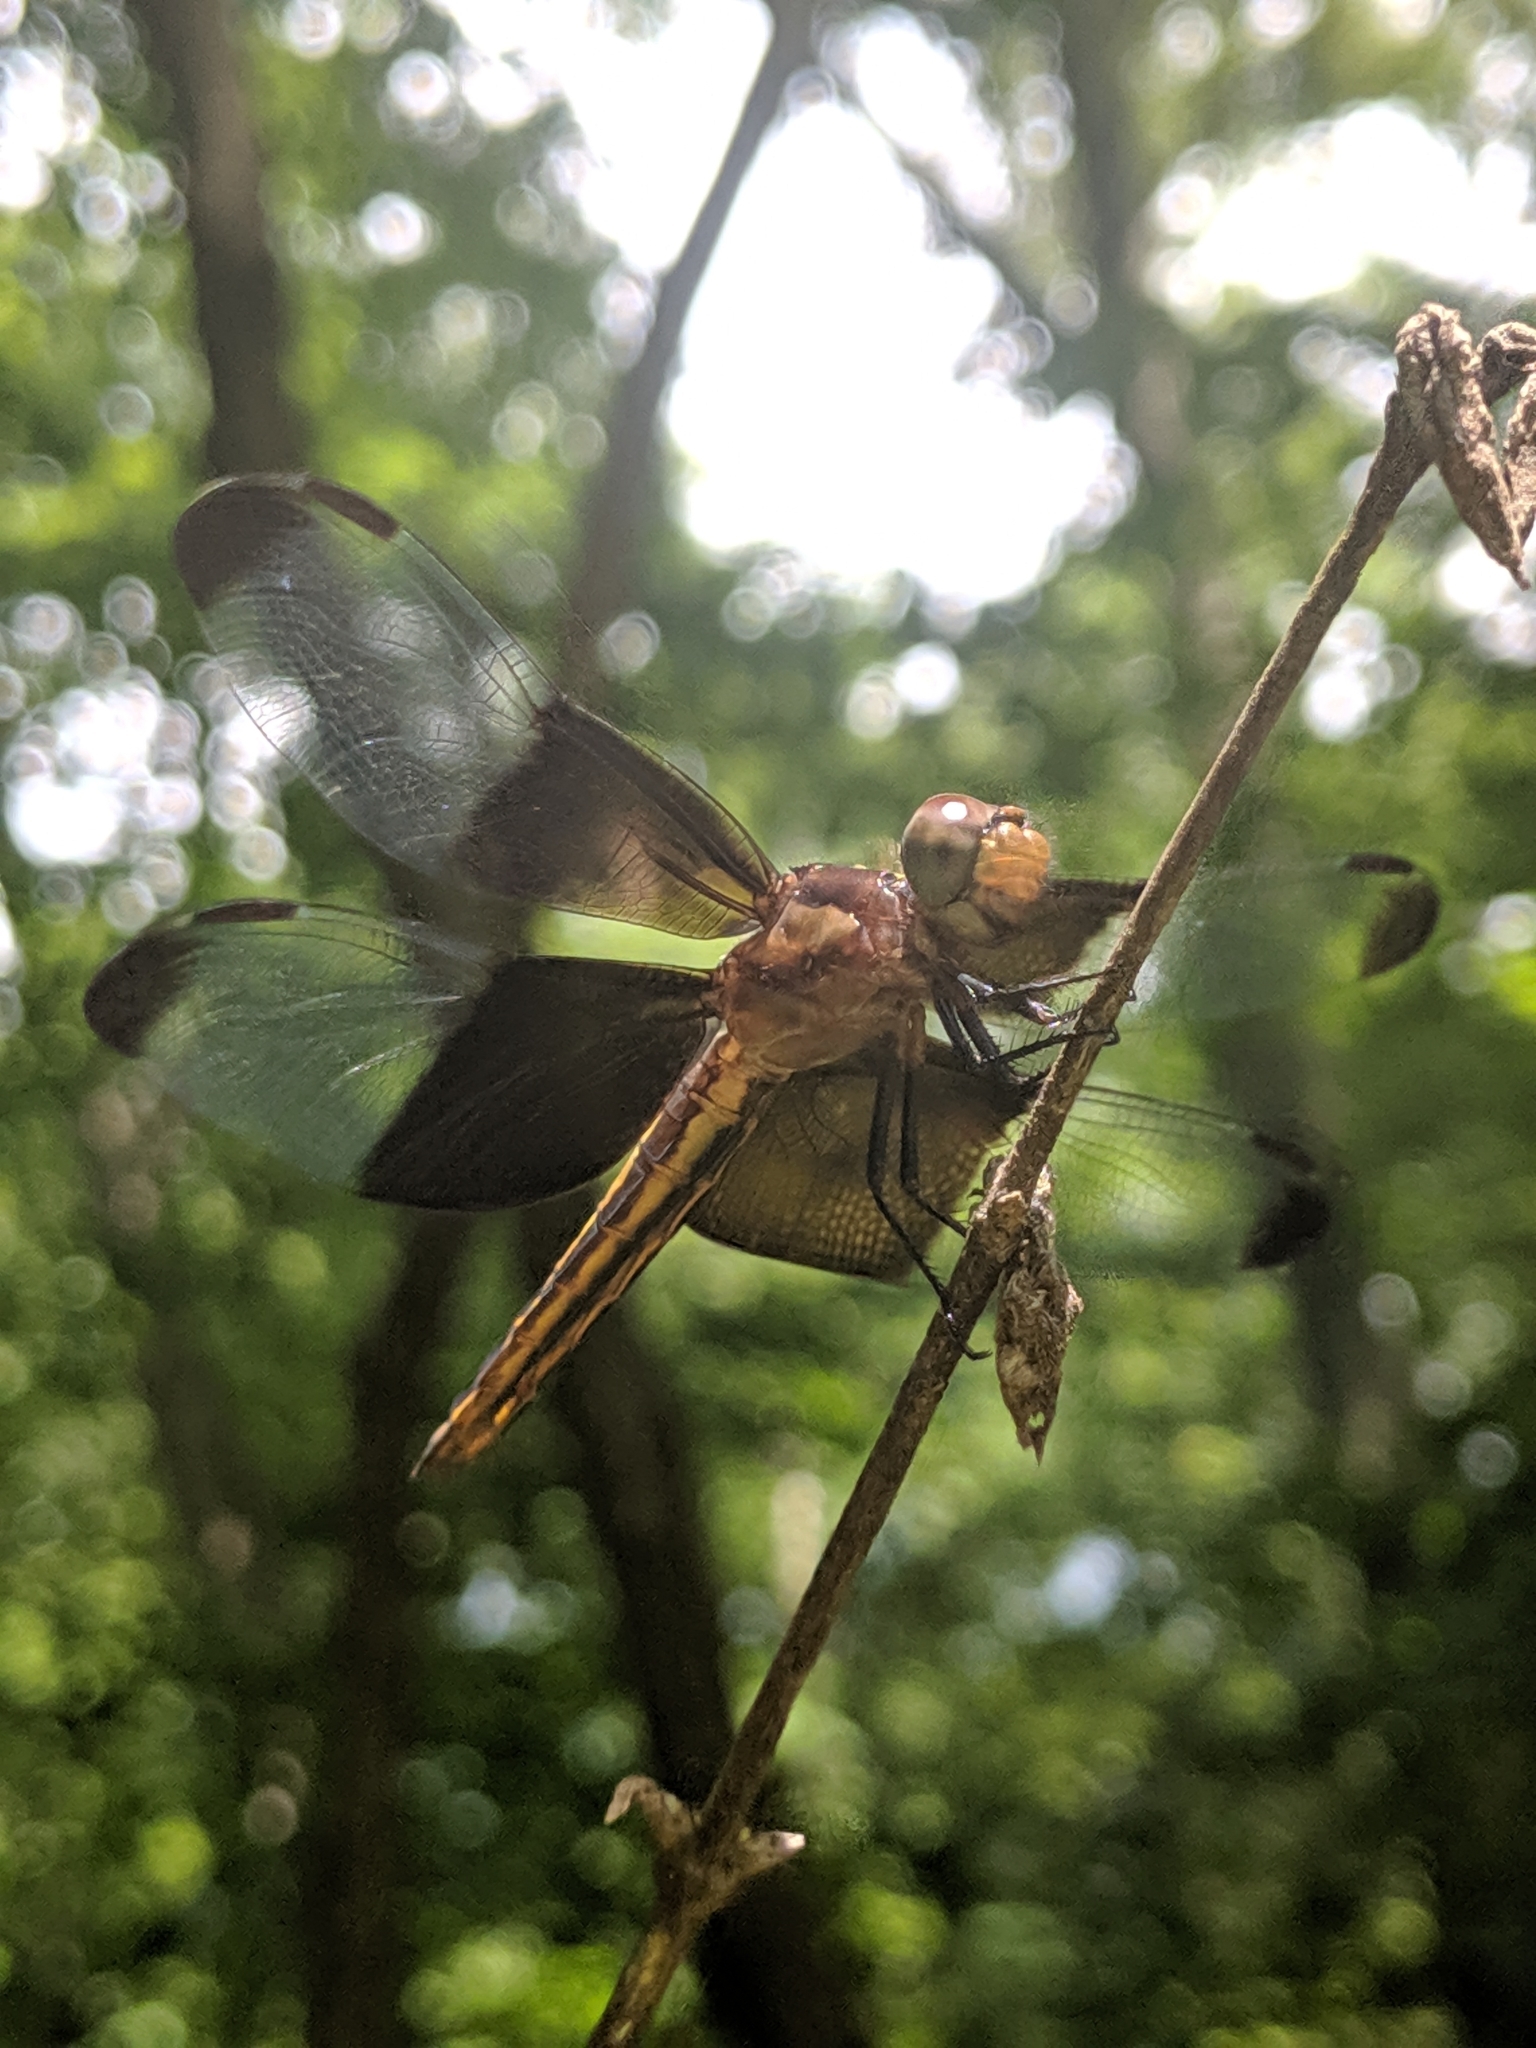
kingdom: Animalia
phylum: Arthropoda
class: Insecta
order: Odonata
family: Libellulidae
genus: Libellula
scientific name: Libellula luctuosa
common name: Widow skimmer
